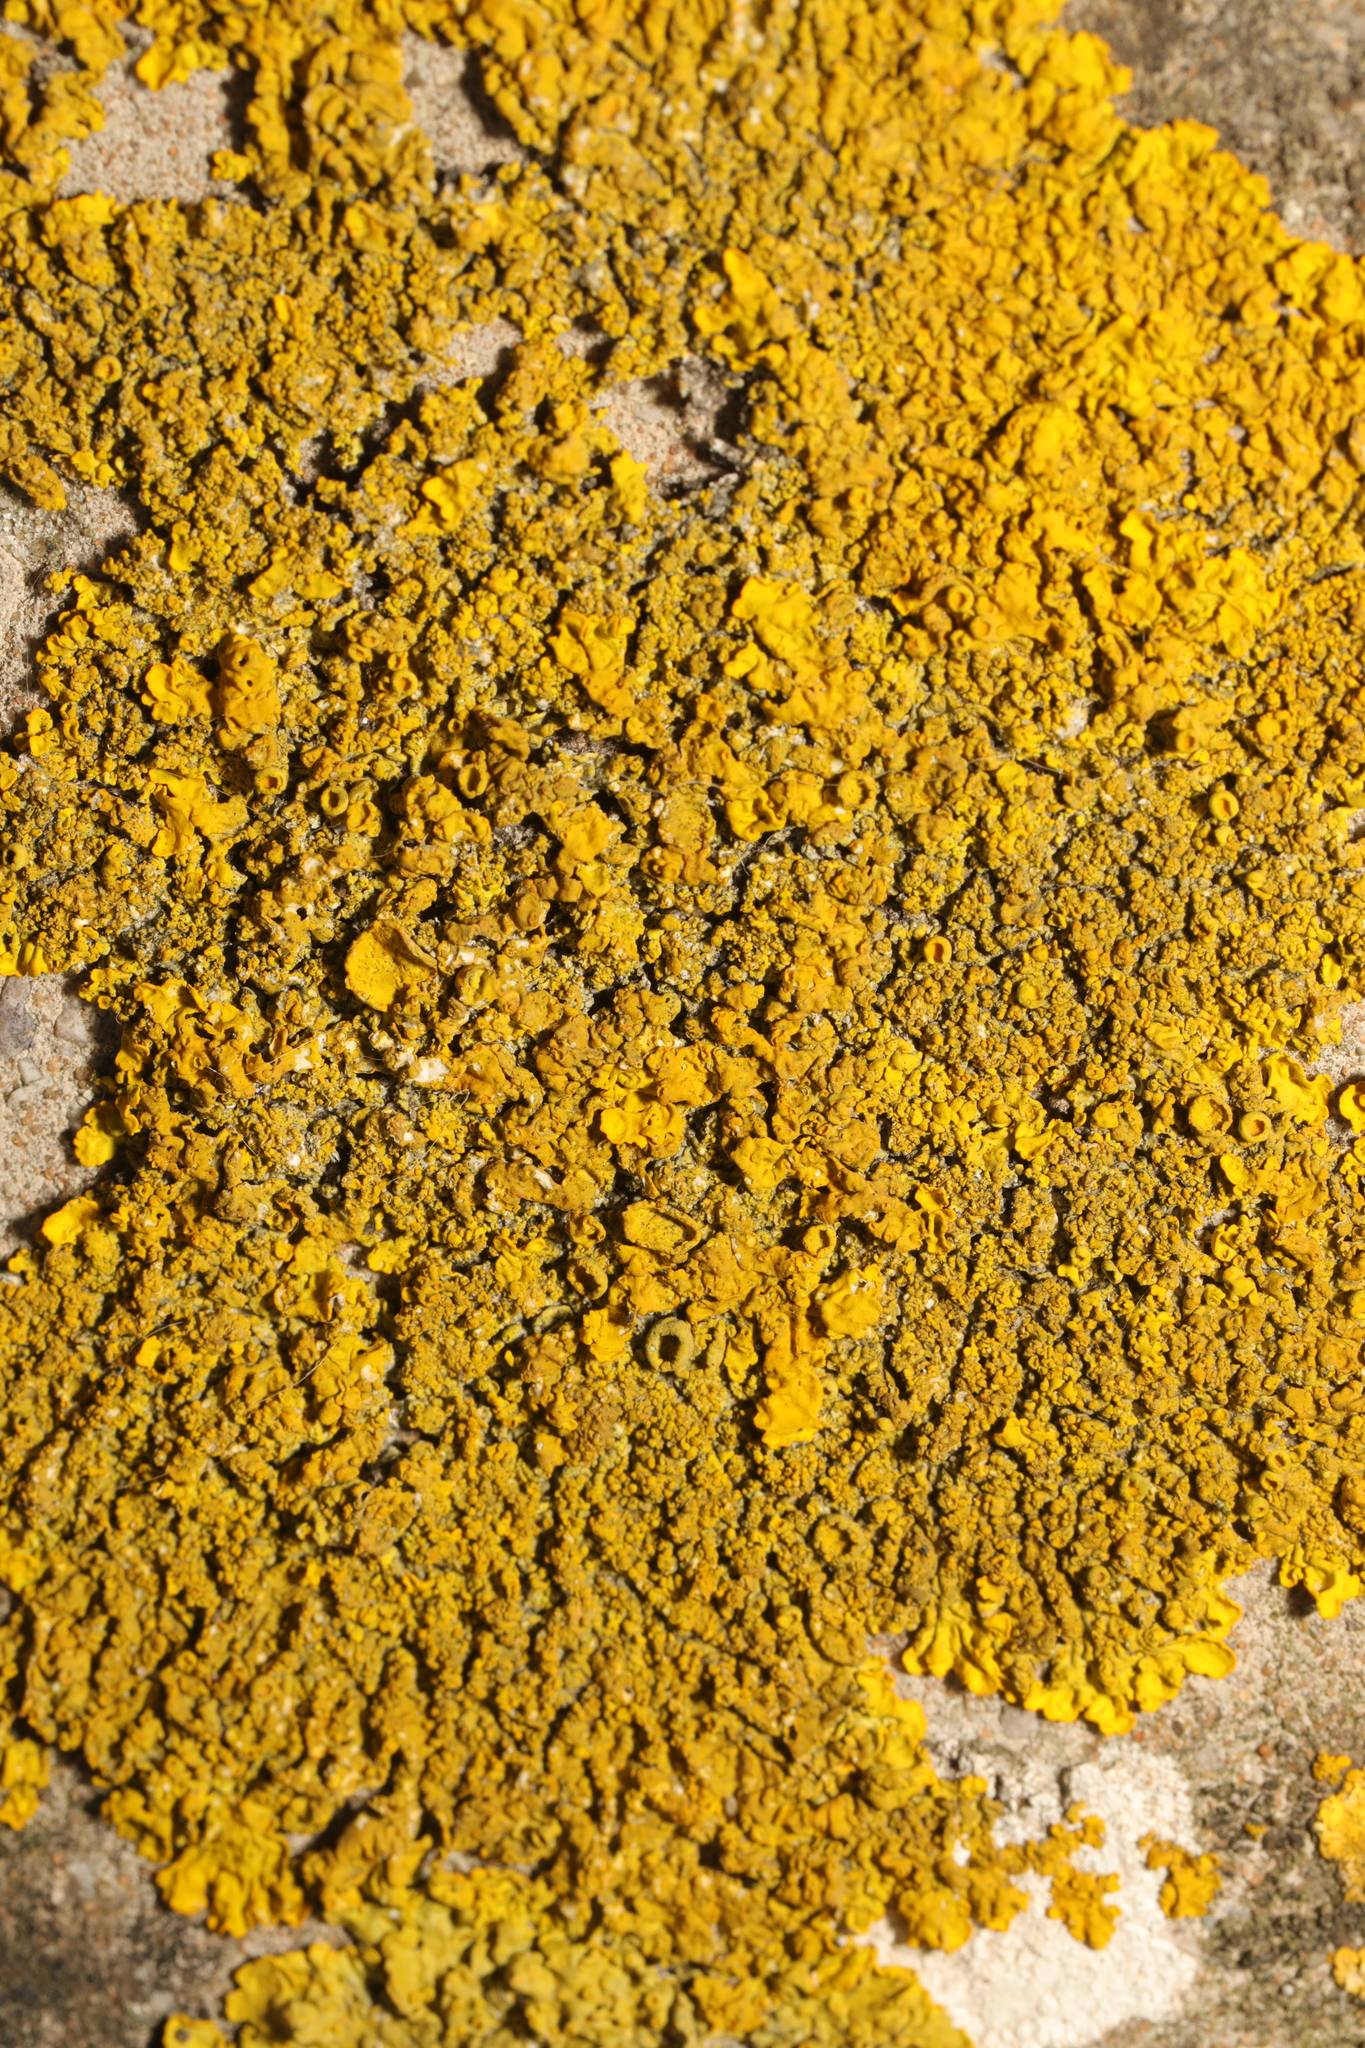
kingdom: Fungi
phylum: Ascomycota
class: Lecanoromycetes
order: Teloschistales
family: Teloschistaceae
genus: Xanthoria
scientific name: Xanthoria calcicola
